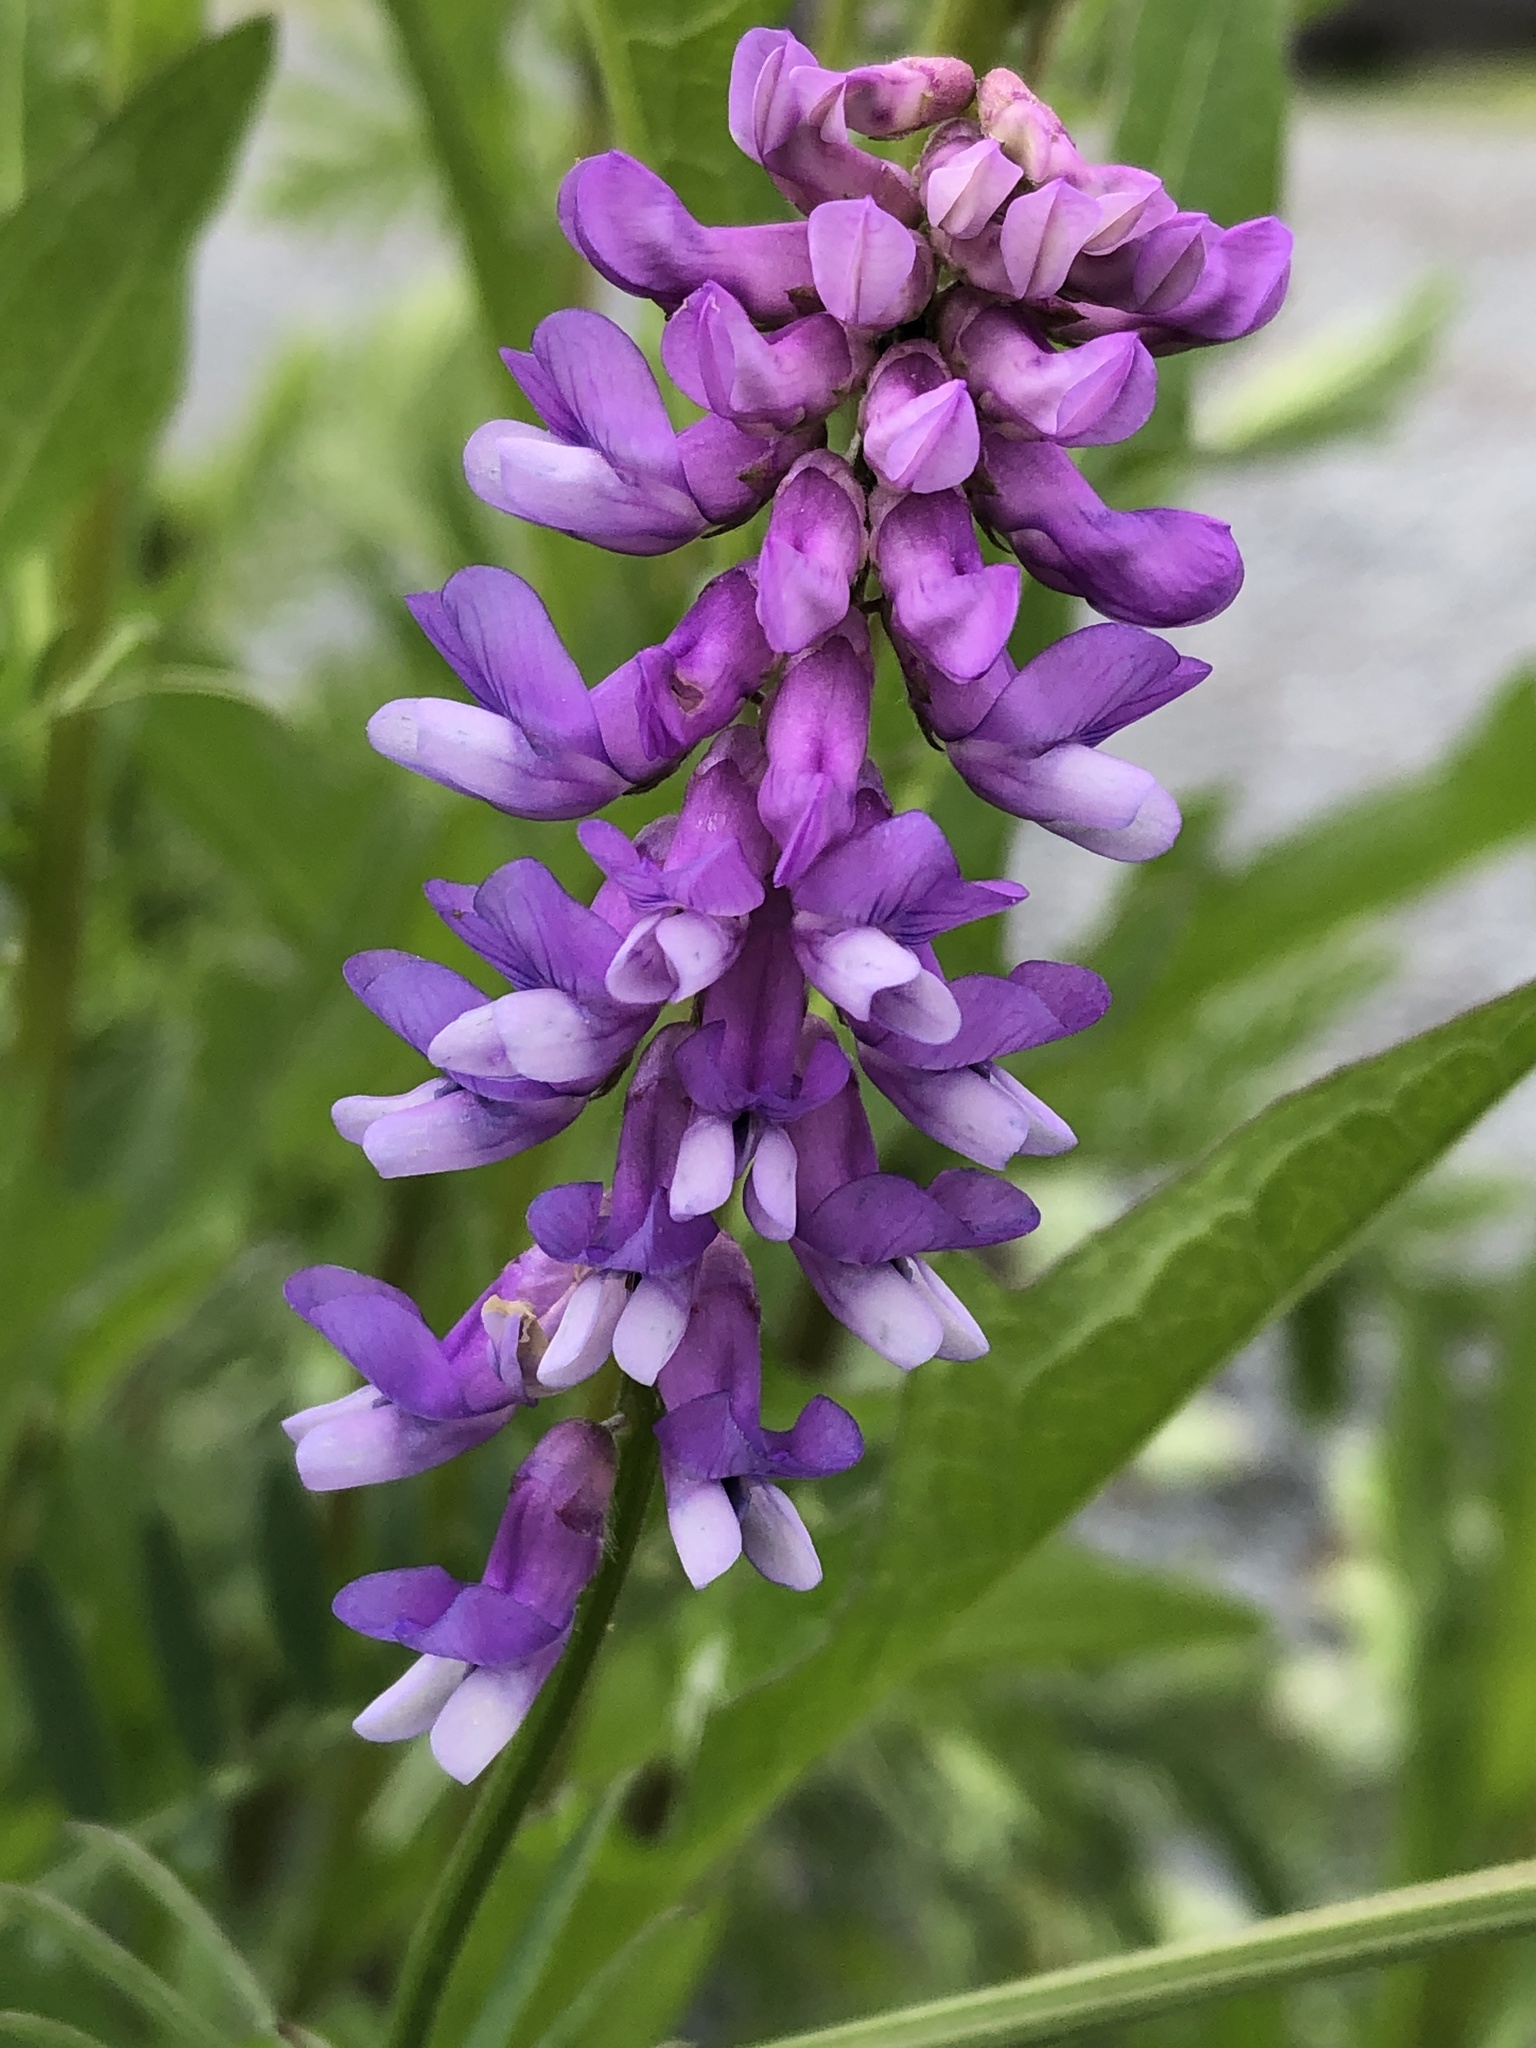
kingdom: Plantae
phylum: Tracheophyta
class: Magnoliopsida
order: Fabales
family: Fabaceae
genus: Vicia
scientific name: Vicia cracca
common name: Bird vetch
